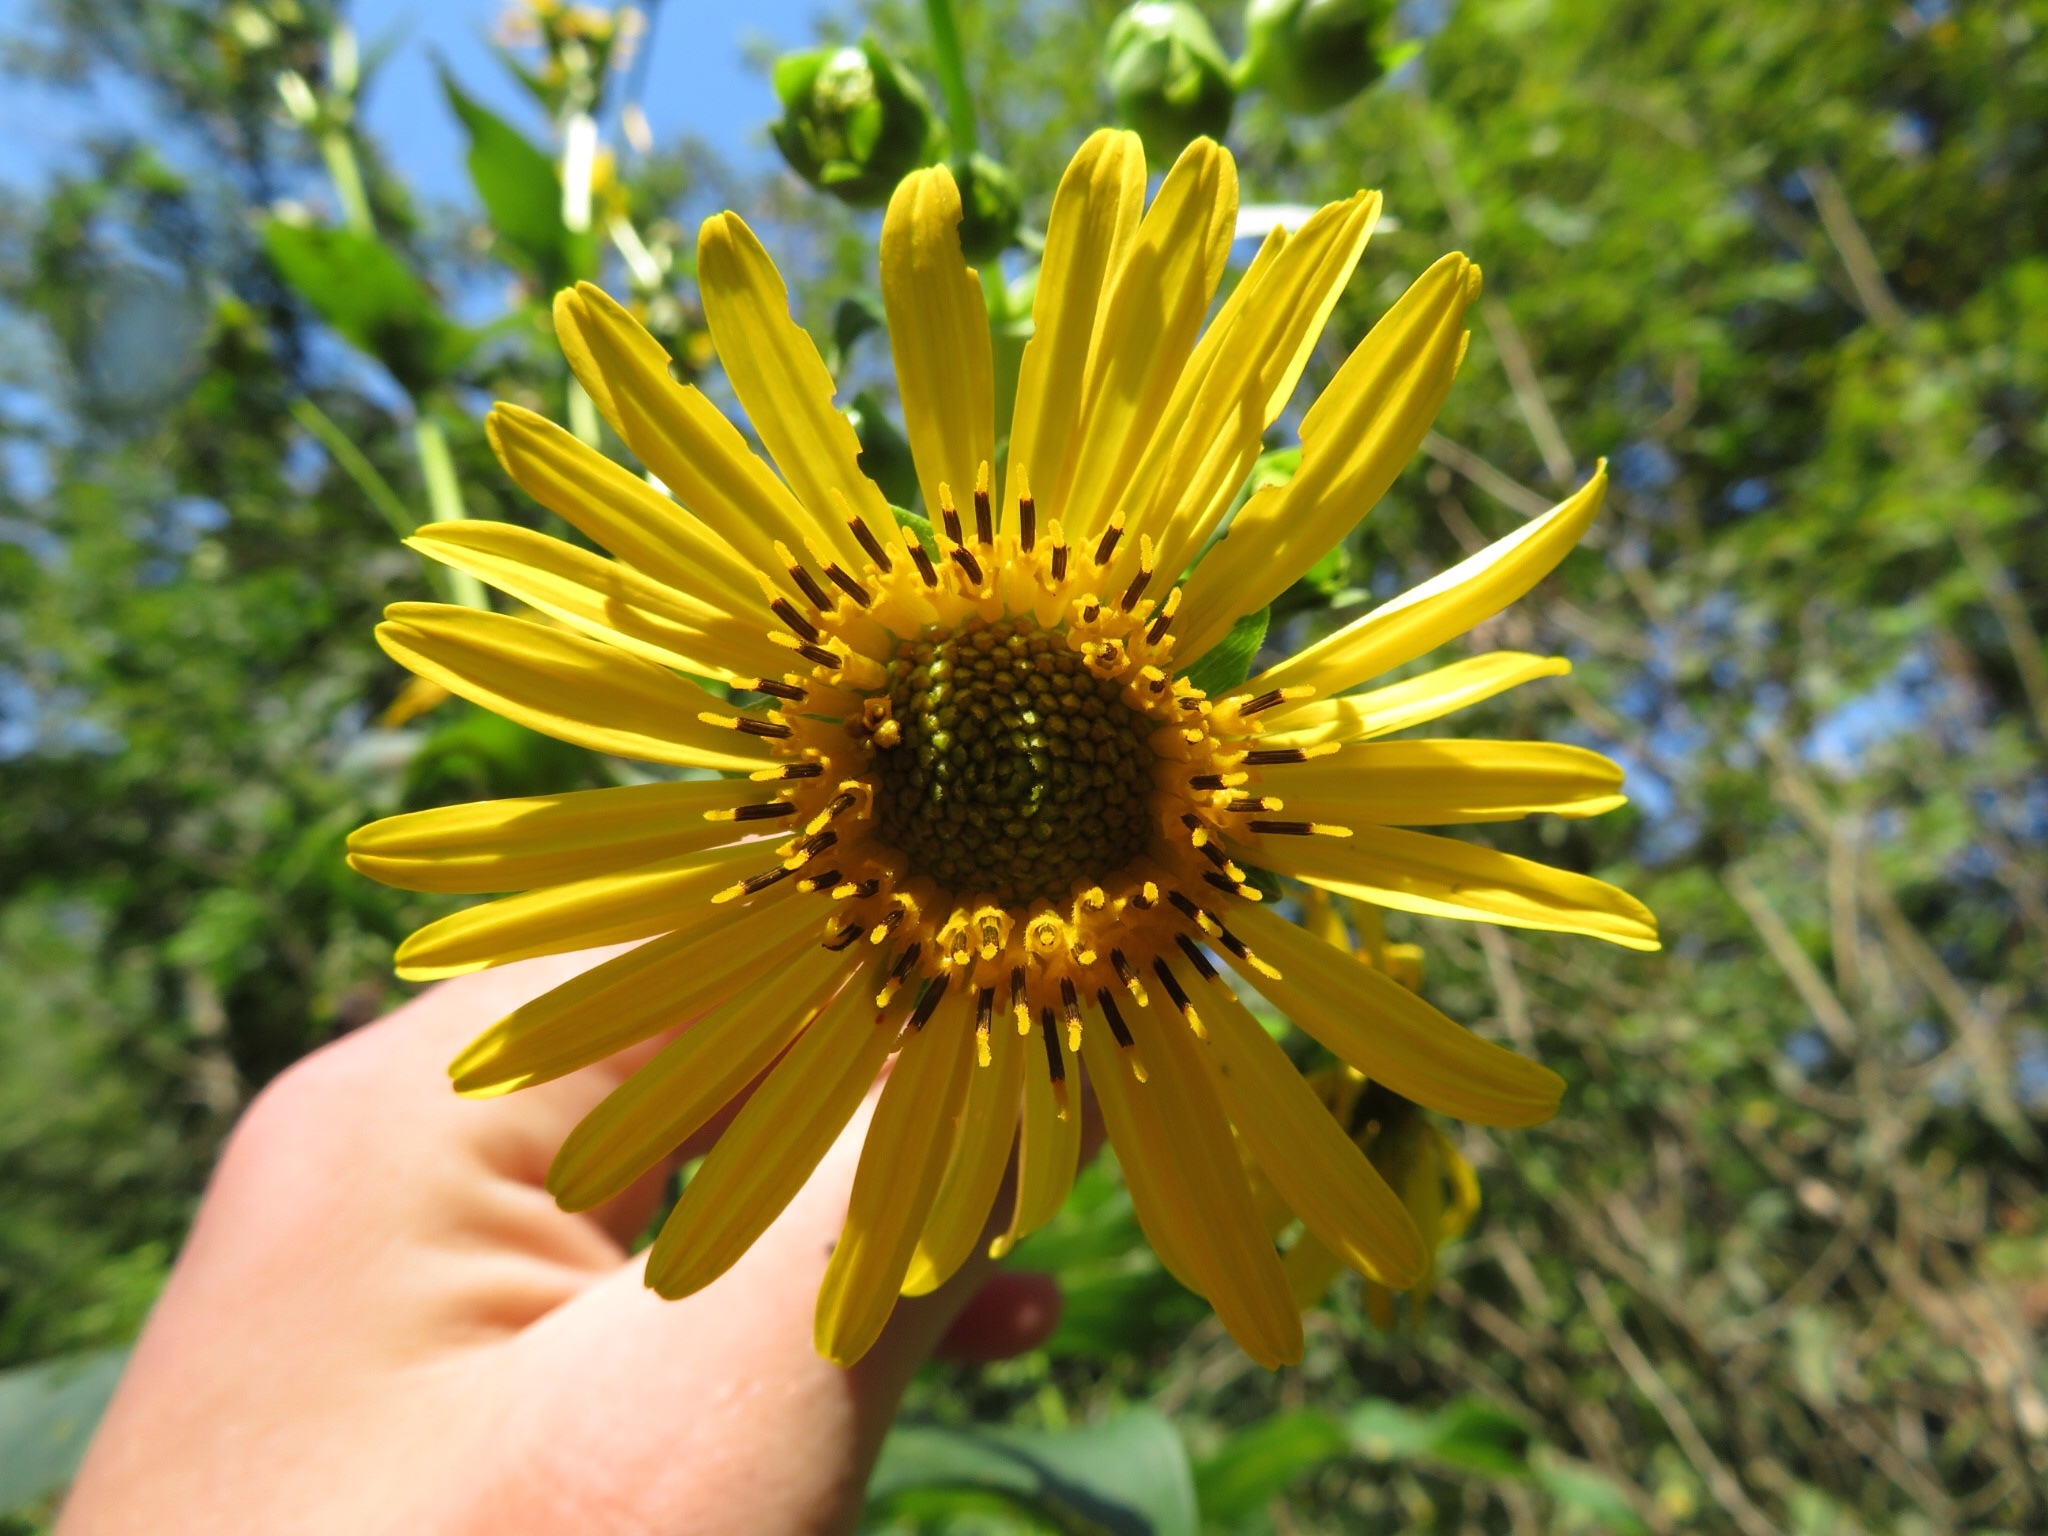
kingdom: Plantae
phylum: Tracheophyta
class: Magnoliopsida
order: Asterales
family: Asteraceae
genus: Silphium
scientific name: Silphium perfoliatum
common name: Cup-plant
